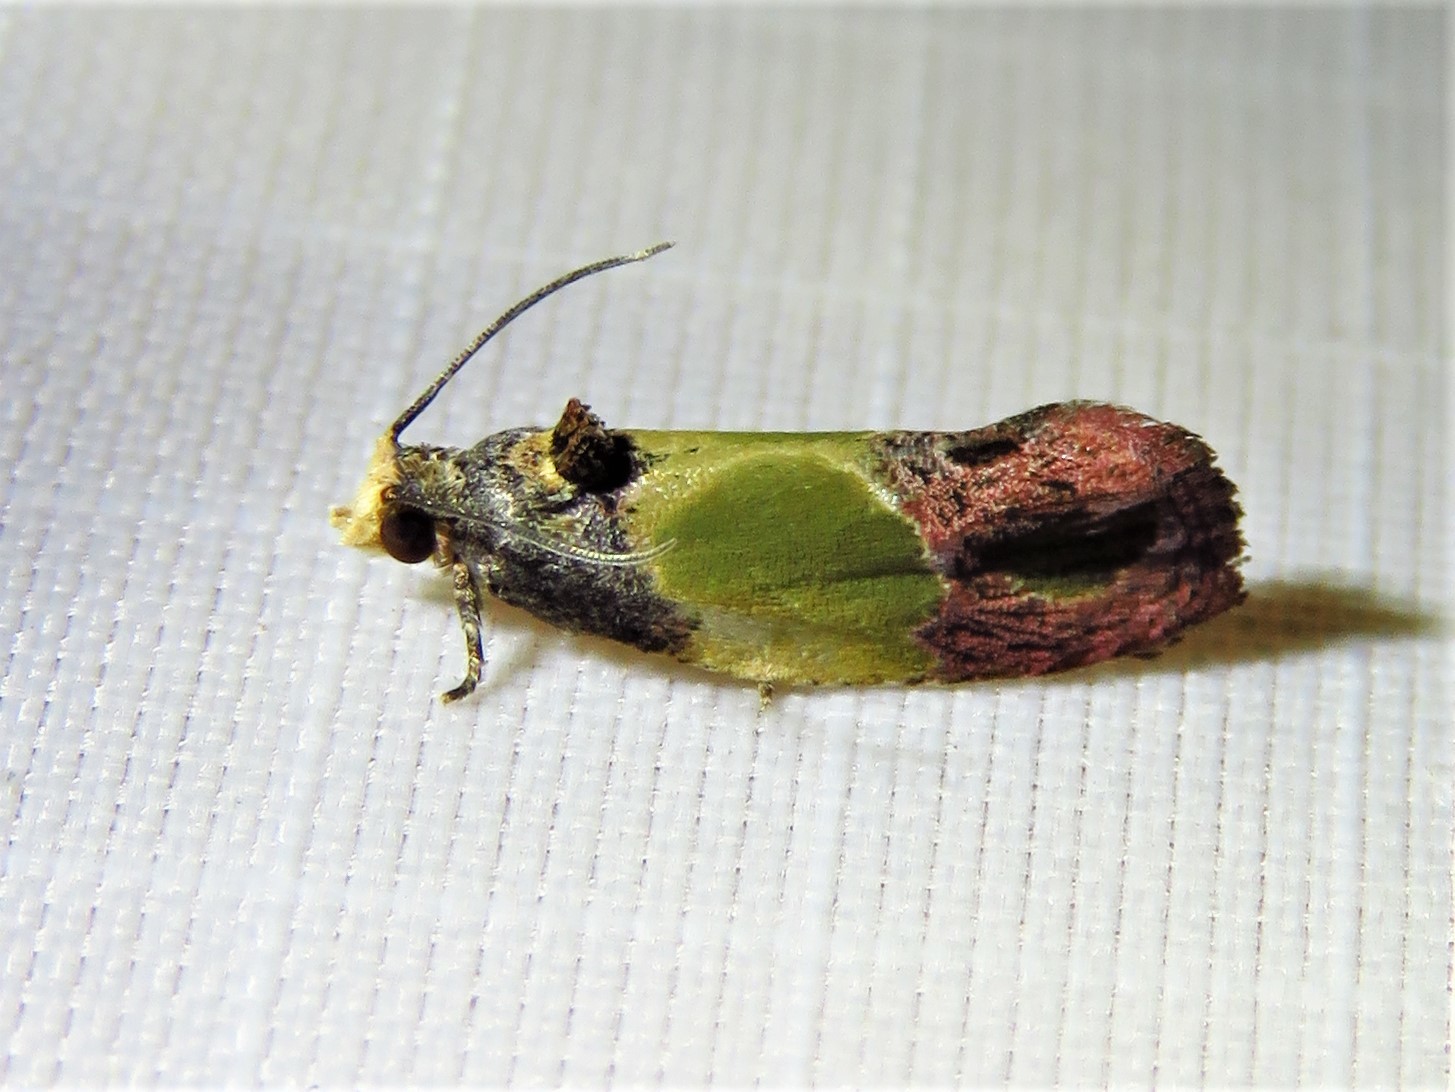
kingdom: Animalia
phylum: Arthropoda
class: Insecta
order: Lepidoptera
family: Tortricidae
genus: Eumarozia
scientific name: Eumarozia malachitana
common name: Sculptured moth
